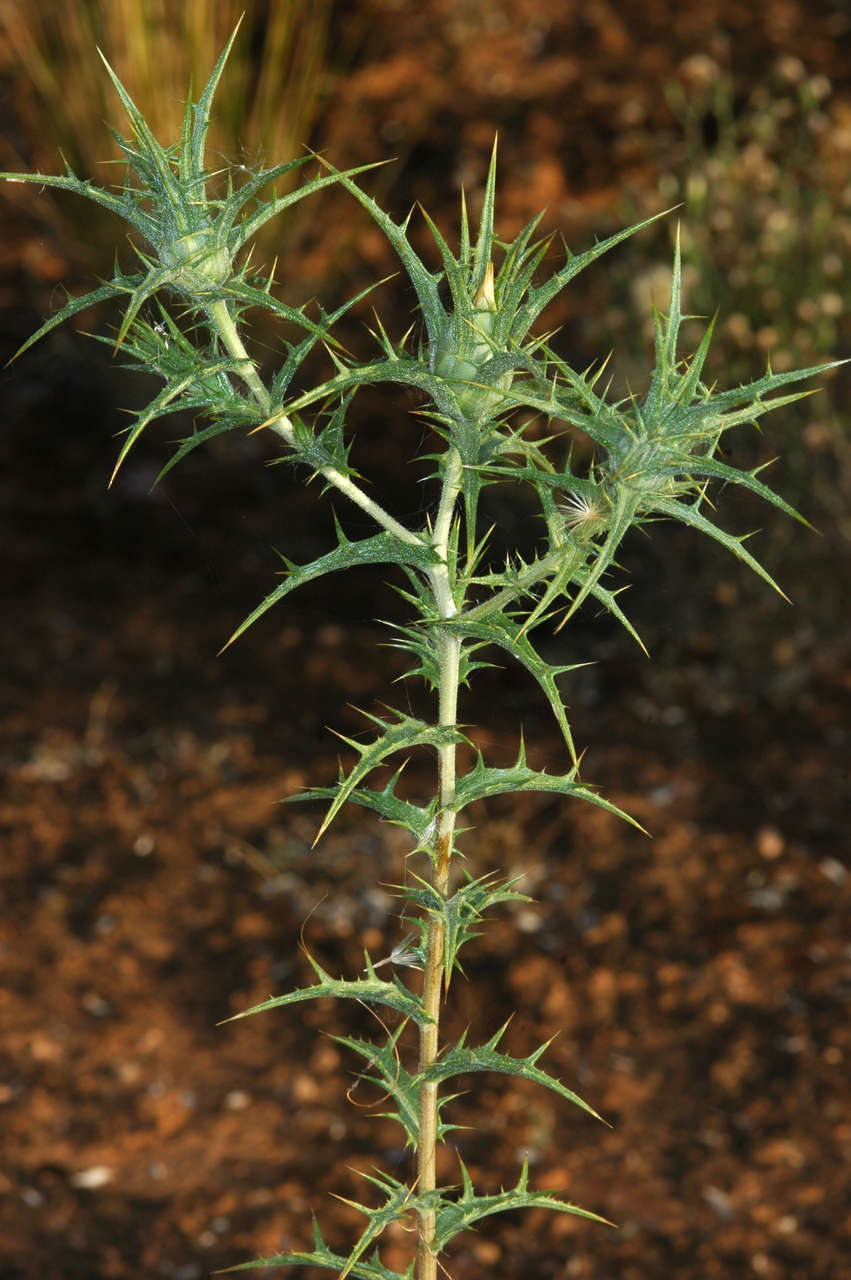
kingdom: Plantae
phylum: Tracheophyta
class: Magnoliopsida
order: Asterales
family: Asteraceae
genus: Carthamus
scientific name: Carthamus lanatus
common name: Downy safflower
